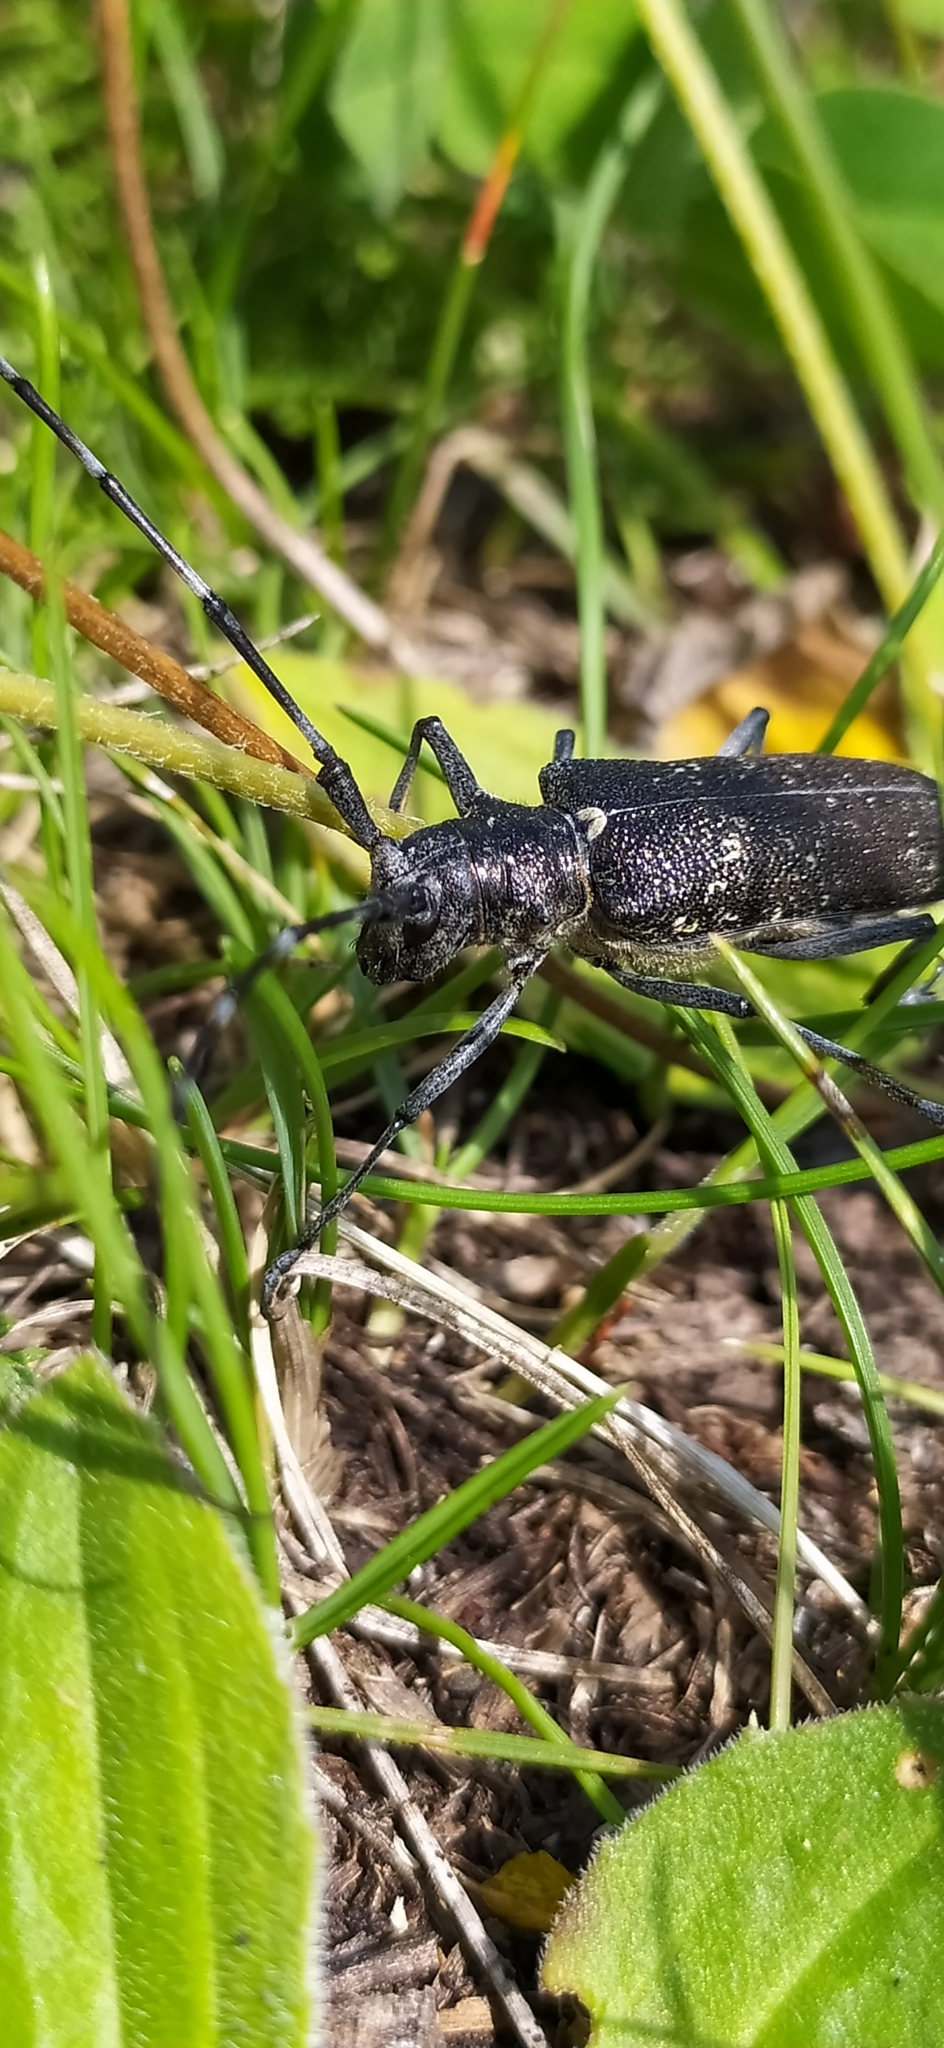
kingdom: Animalia
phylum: Arthropoda
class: Insecta
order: Coleoptera
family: Cerambycidae
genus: Monochamus
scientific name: Monochamus sutor
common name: Pine sawyer
